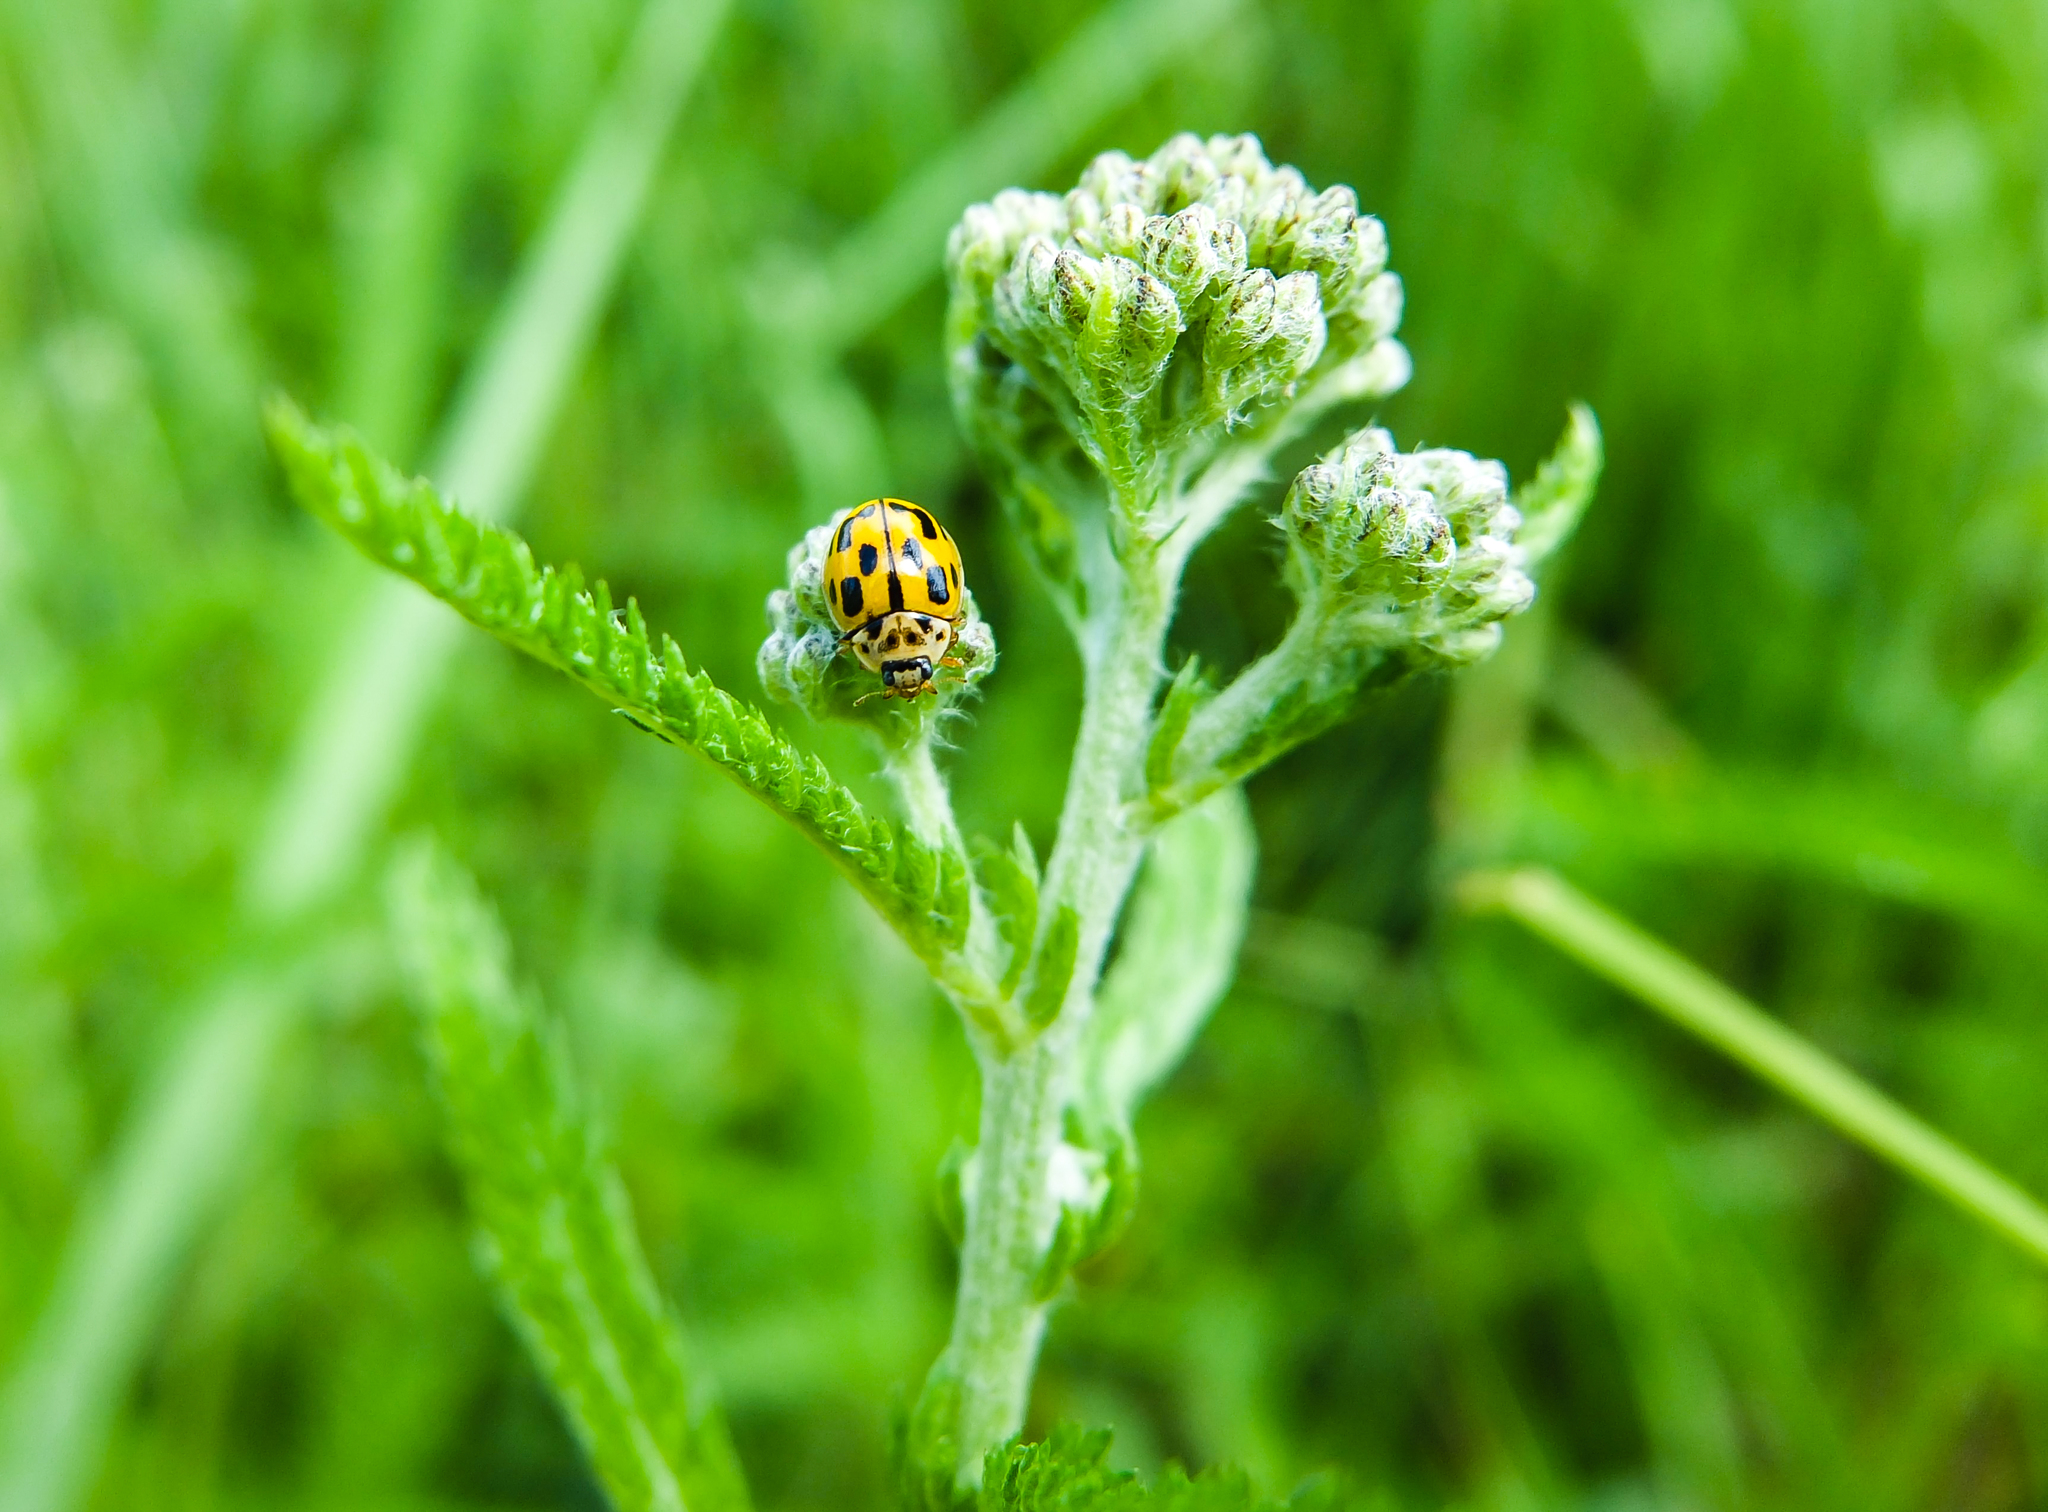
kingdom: Animalia
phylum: Arthropoda
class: Insecta
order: Coleoptera
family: Coccinellidae
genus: Propylaea
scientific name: Propylaea quatuordecimpunctata
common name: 14-spotted ladybird beetle
